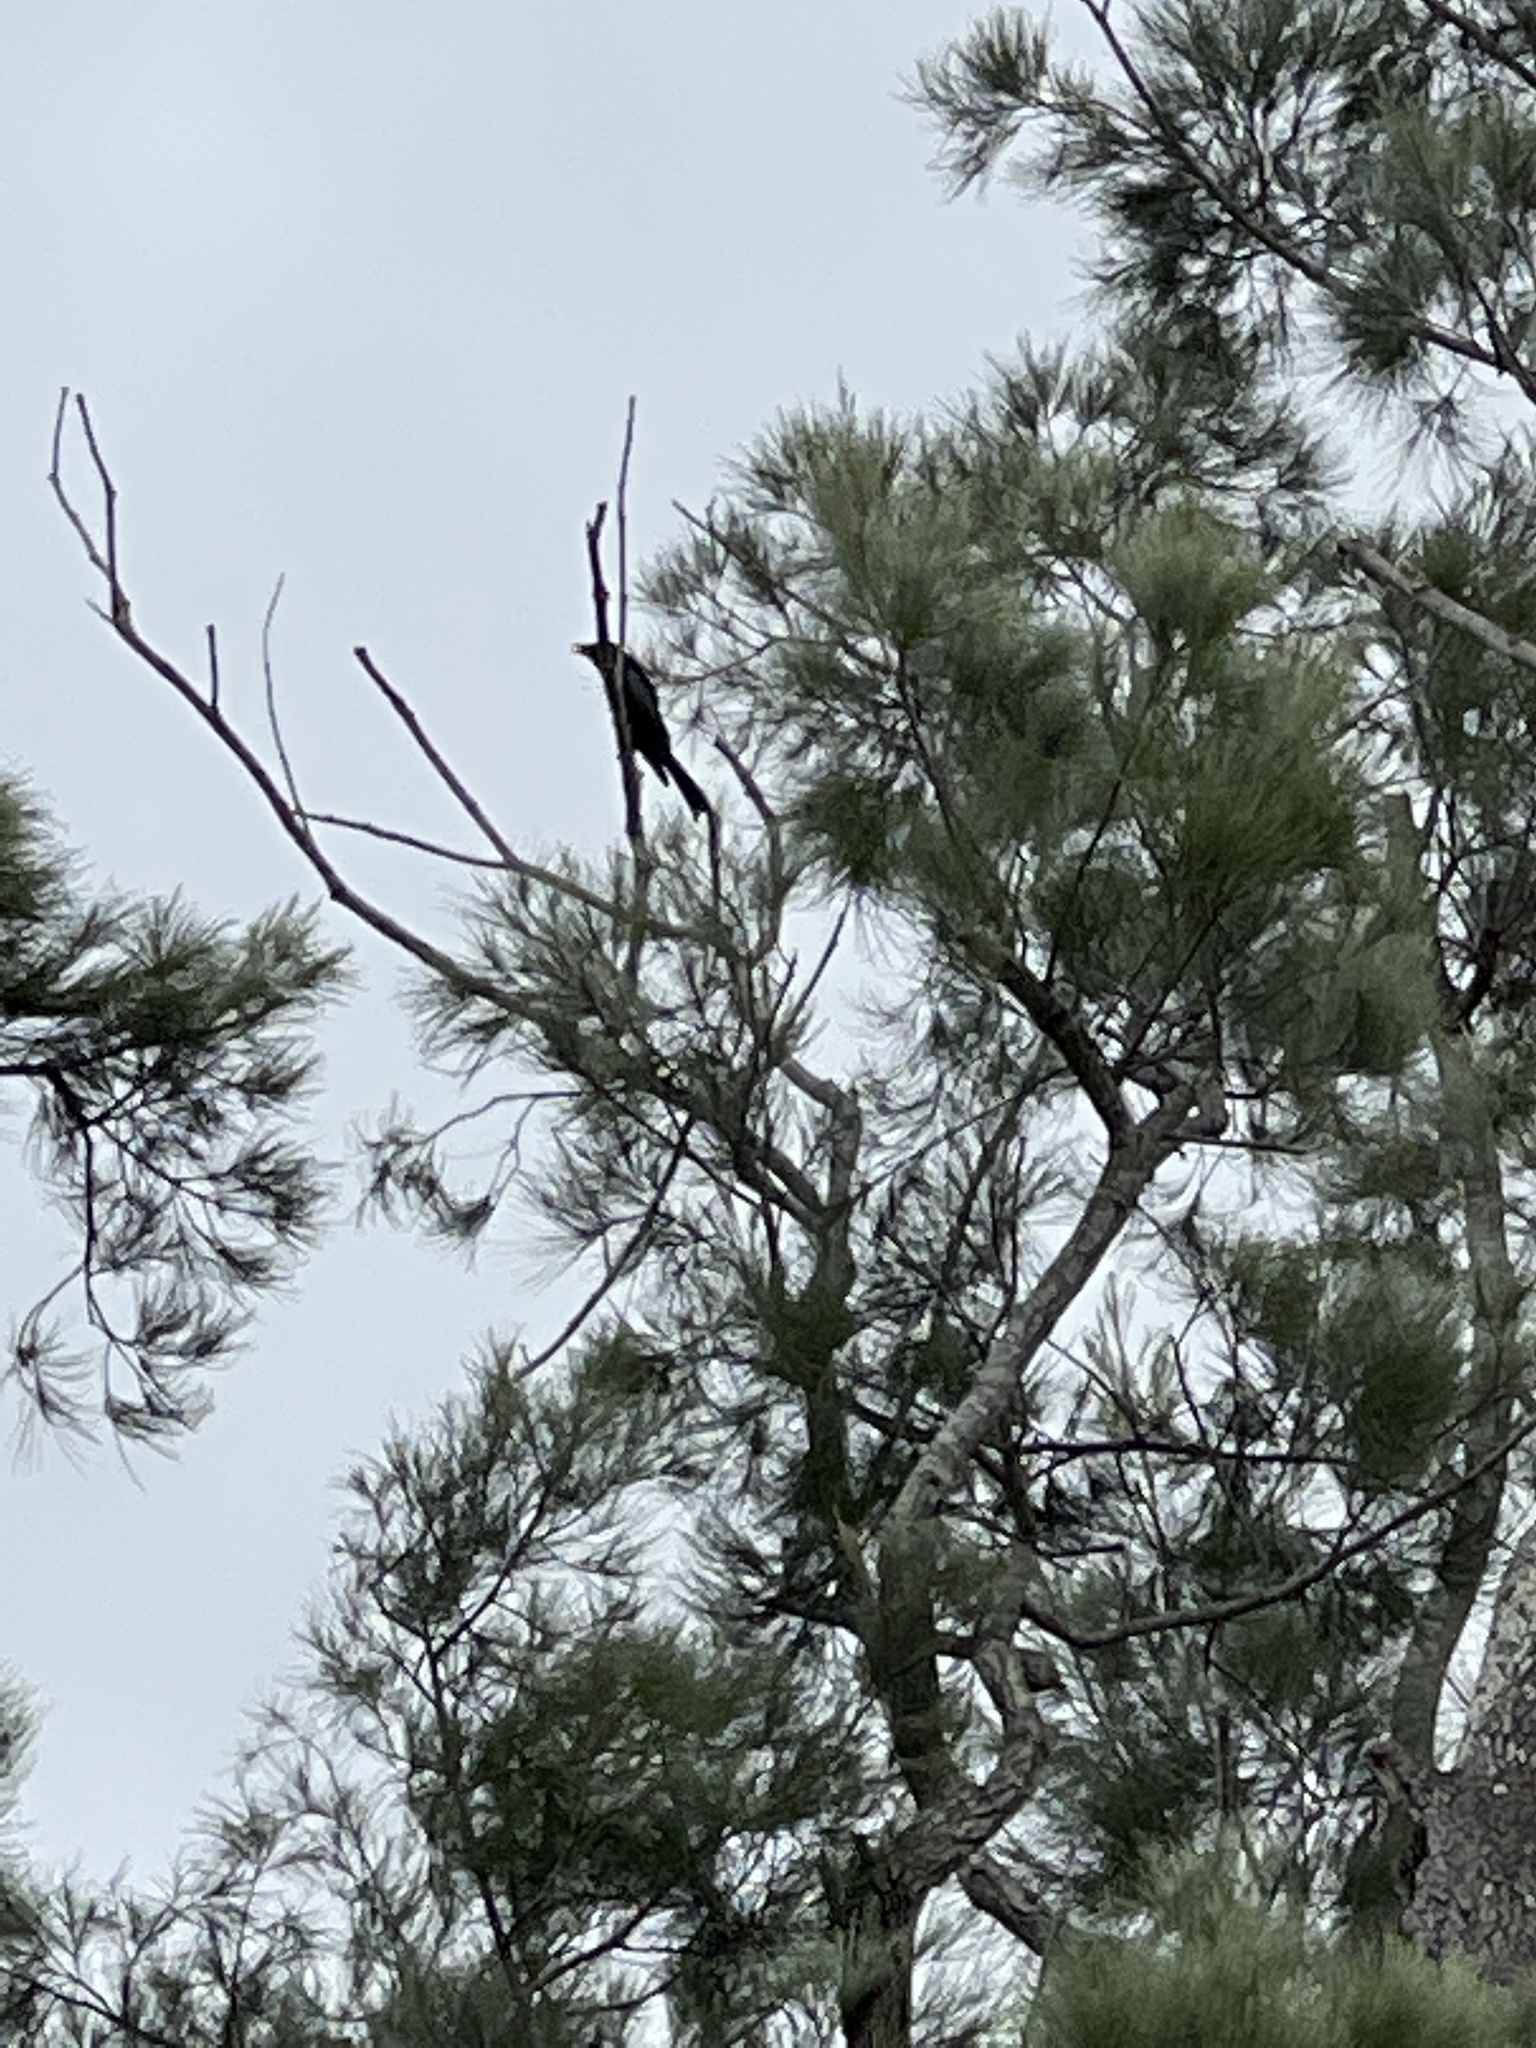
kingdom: Animalia
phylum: Chordata
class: Aves
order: Passeriformes
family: Dicruridae
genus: Dicrurus
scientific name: Dicrurus bracteatus
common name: Spangled drongo
